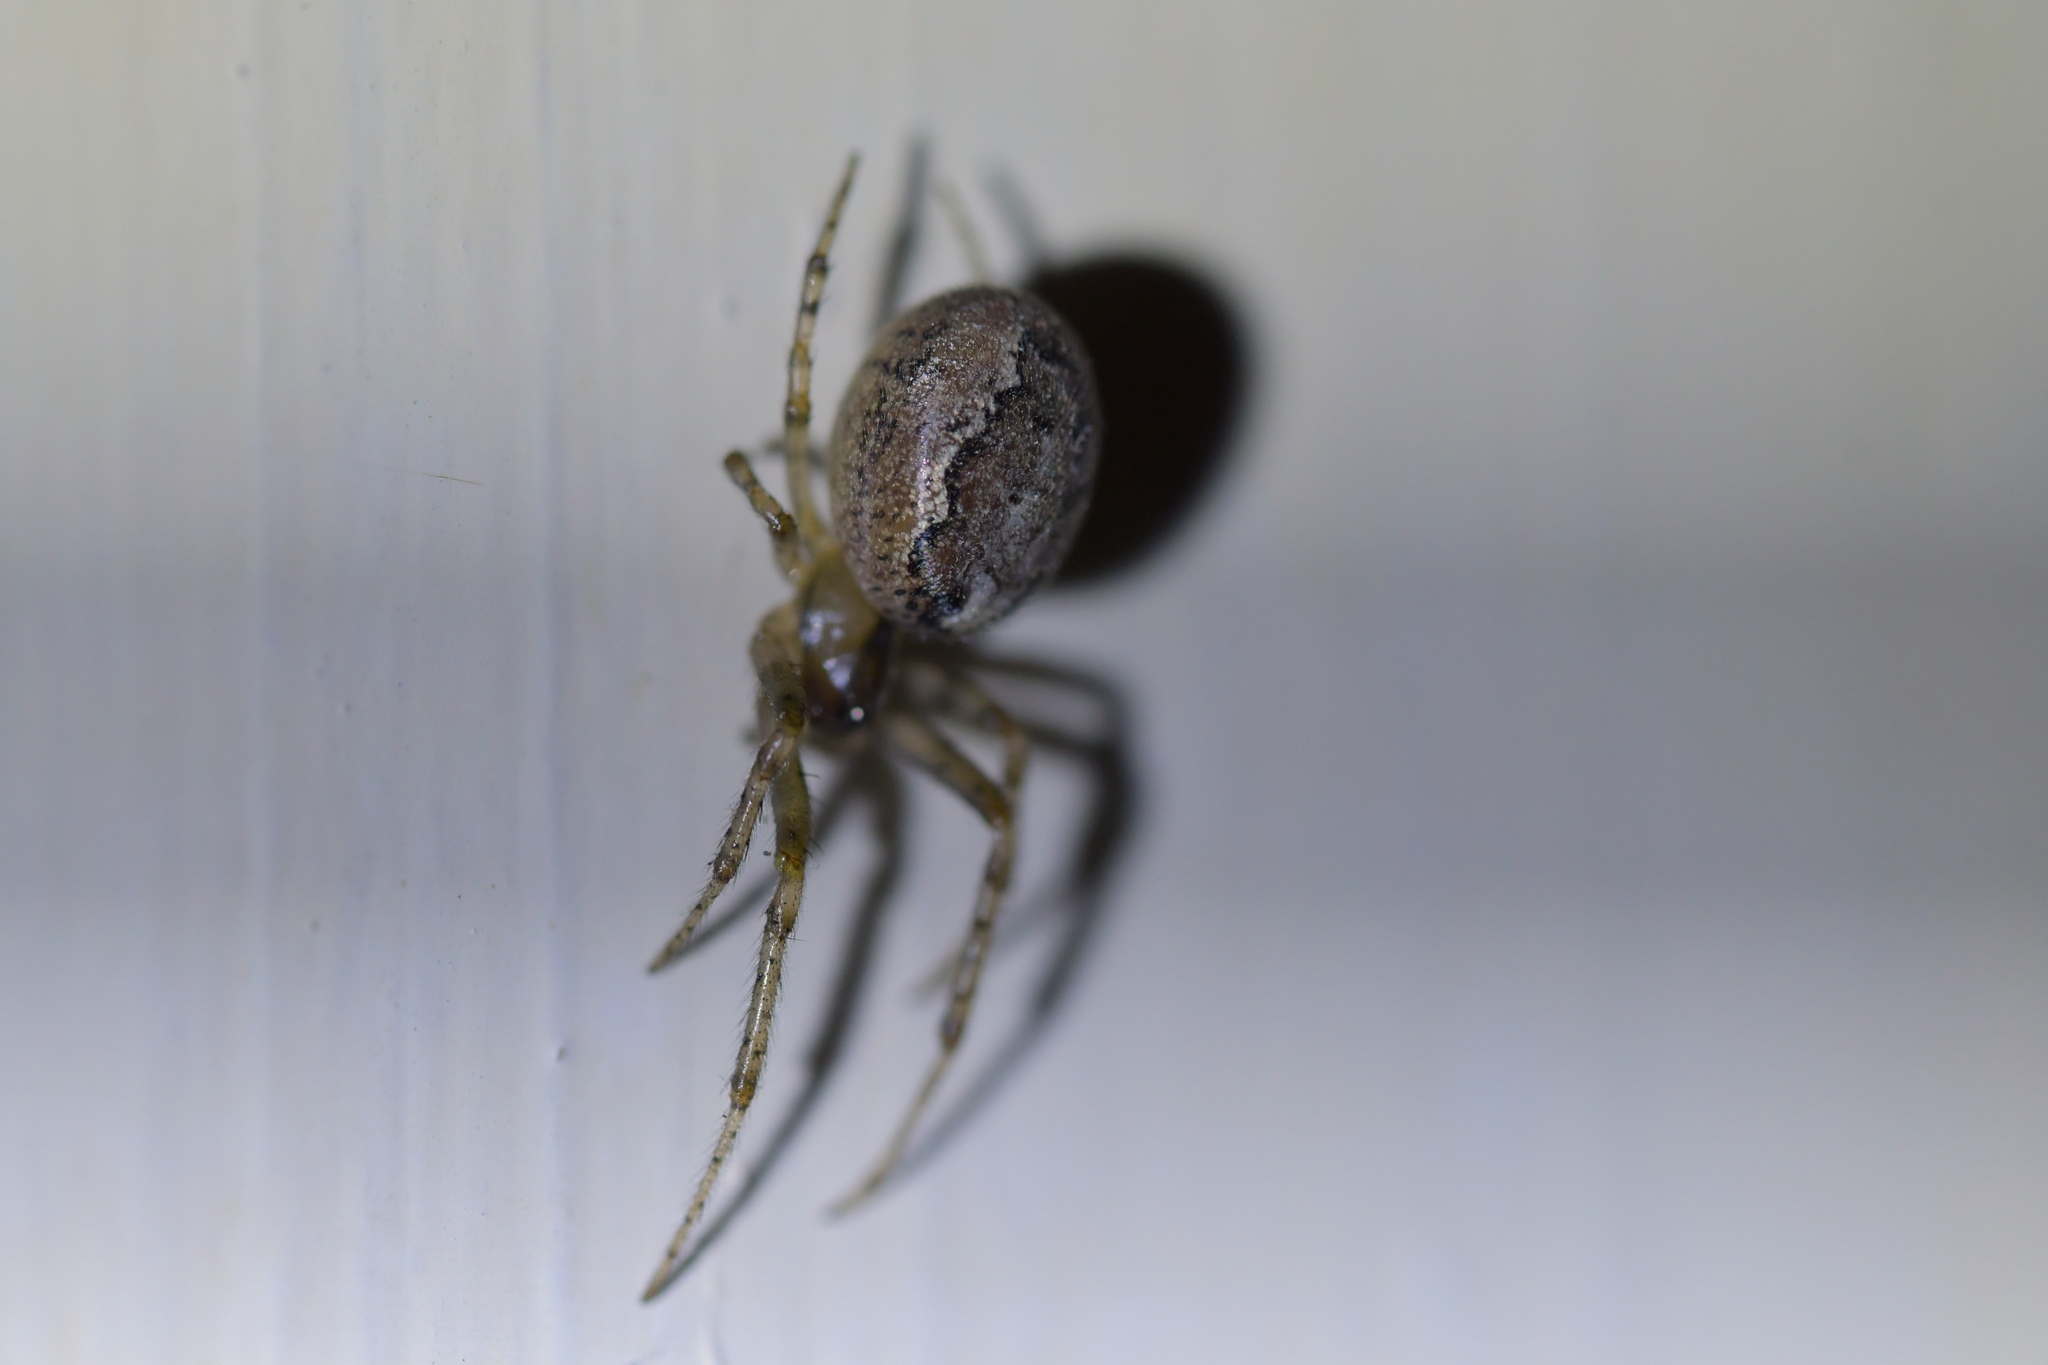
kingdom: Animalia
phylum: Arthropoda
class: Arachnida
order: Araneae
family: Araneidae
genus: Zygiella
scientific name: Zygiella x-notata
